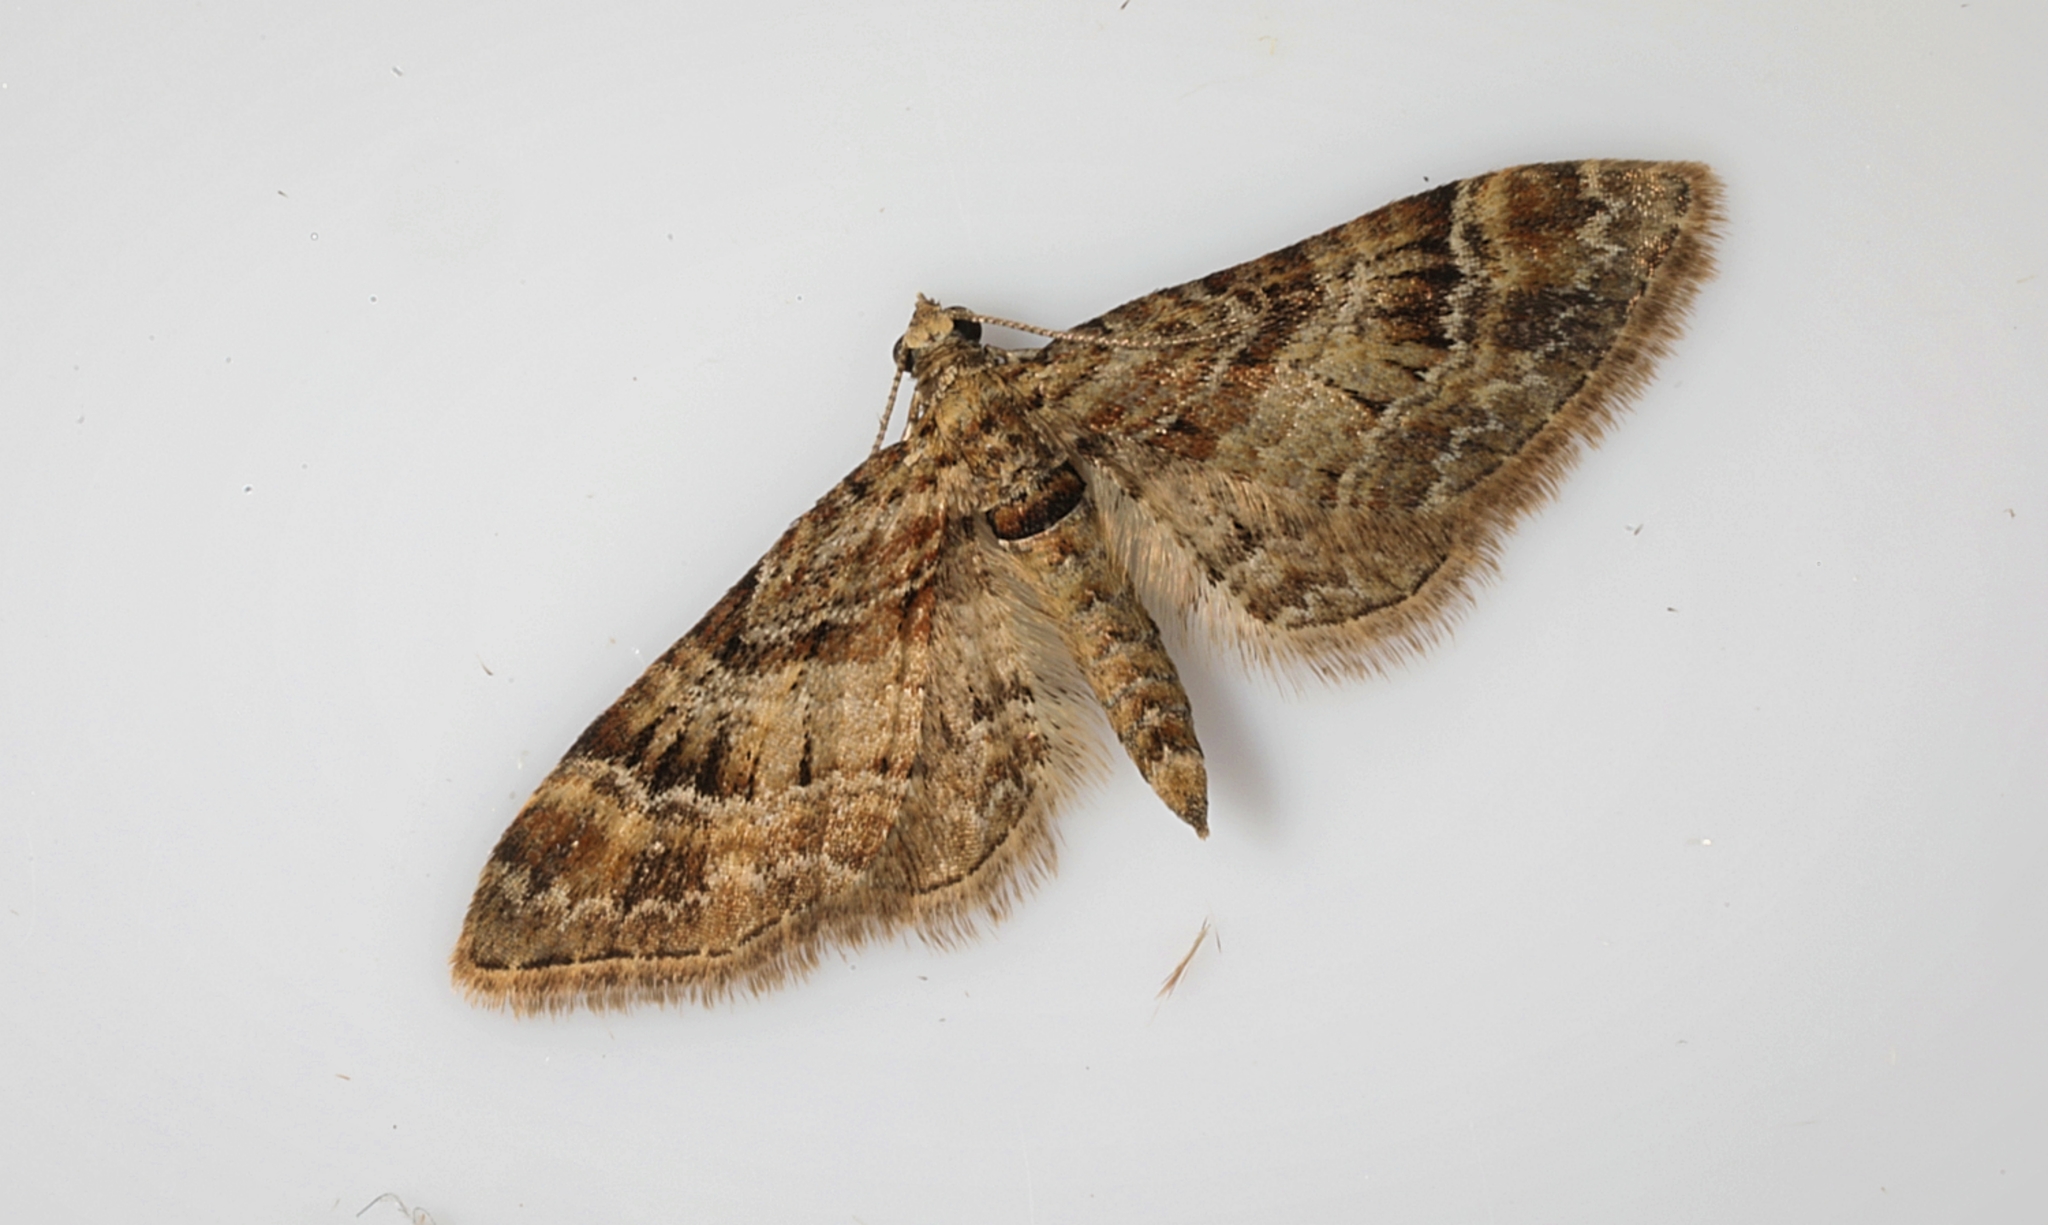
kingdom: Animalia
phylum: Arthropoda
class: Insecta
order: Lepidoptera
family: Geometridae
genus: Gymnoscelis
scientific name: Gymnoscelis rufifasciata
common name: Double-striped pug
